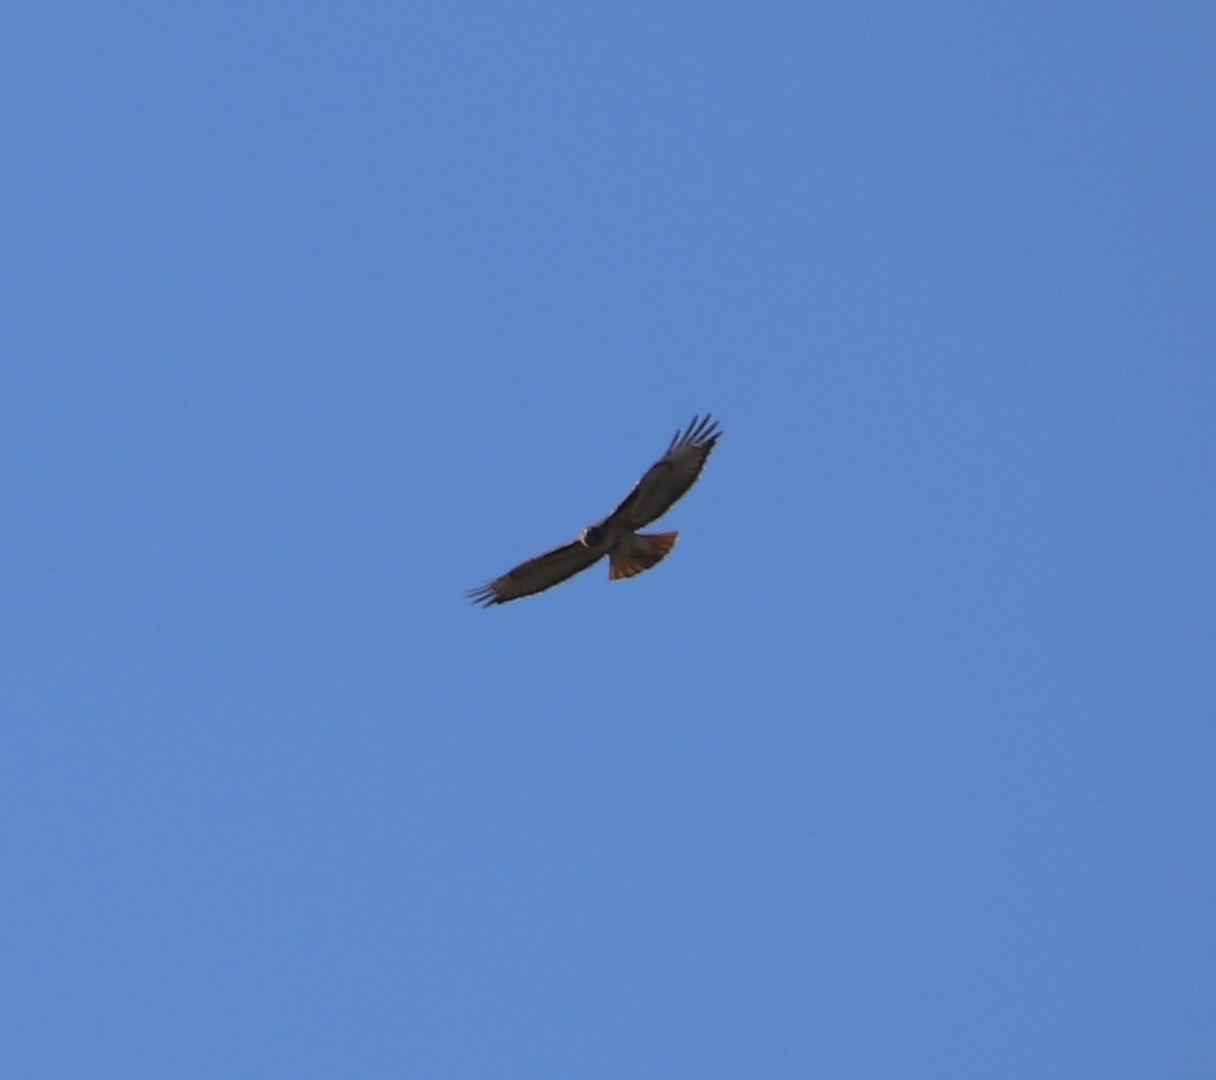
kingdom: Animalia
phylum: Chordata
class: Aves
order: Accipitriformes
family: Accipitridae
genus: Buteo
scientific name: Buteo jamaicensis
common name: Red-tailed hawk
